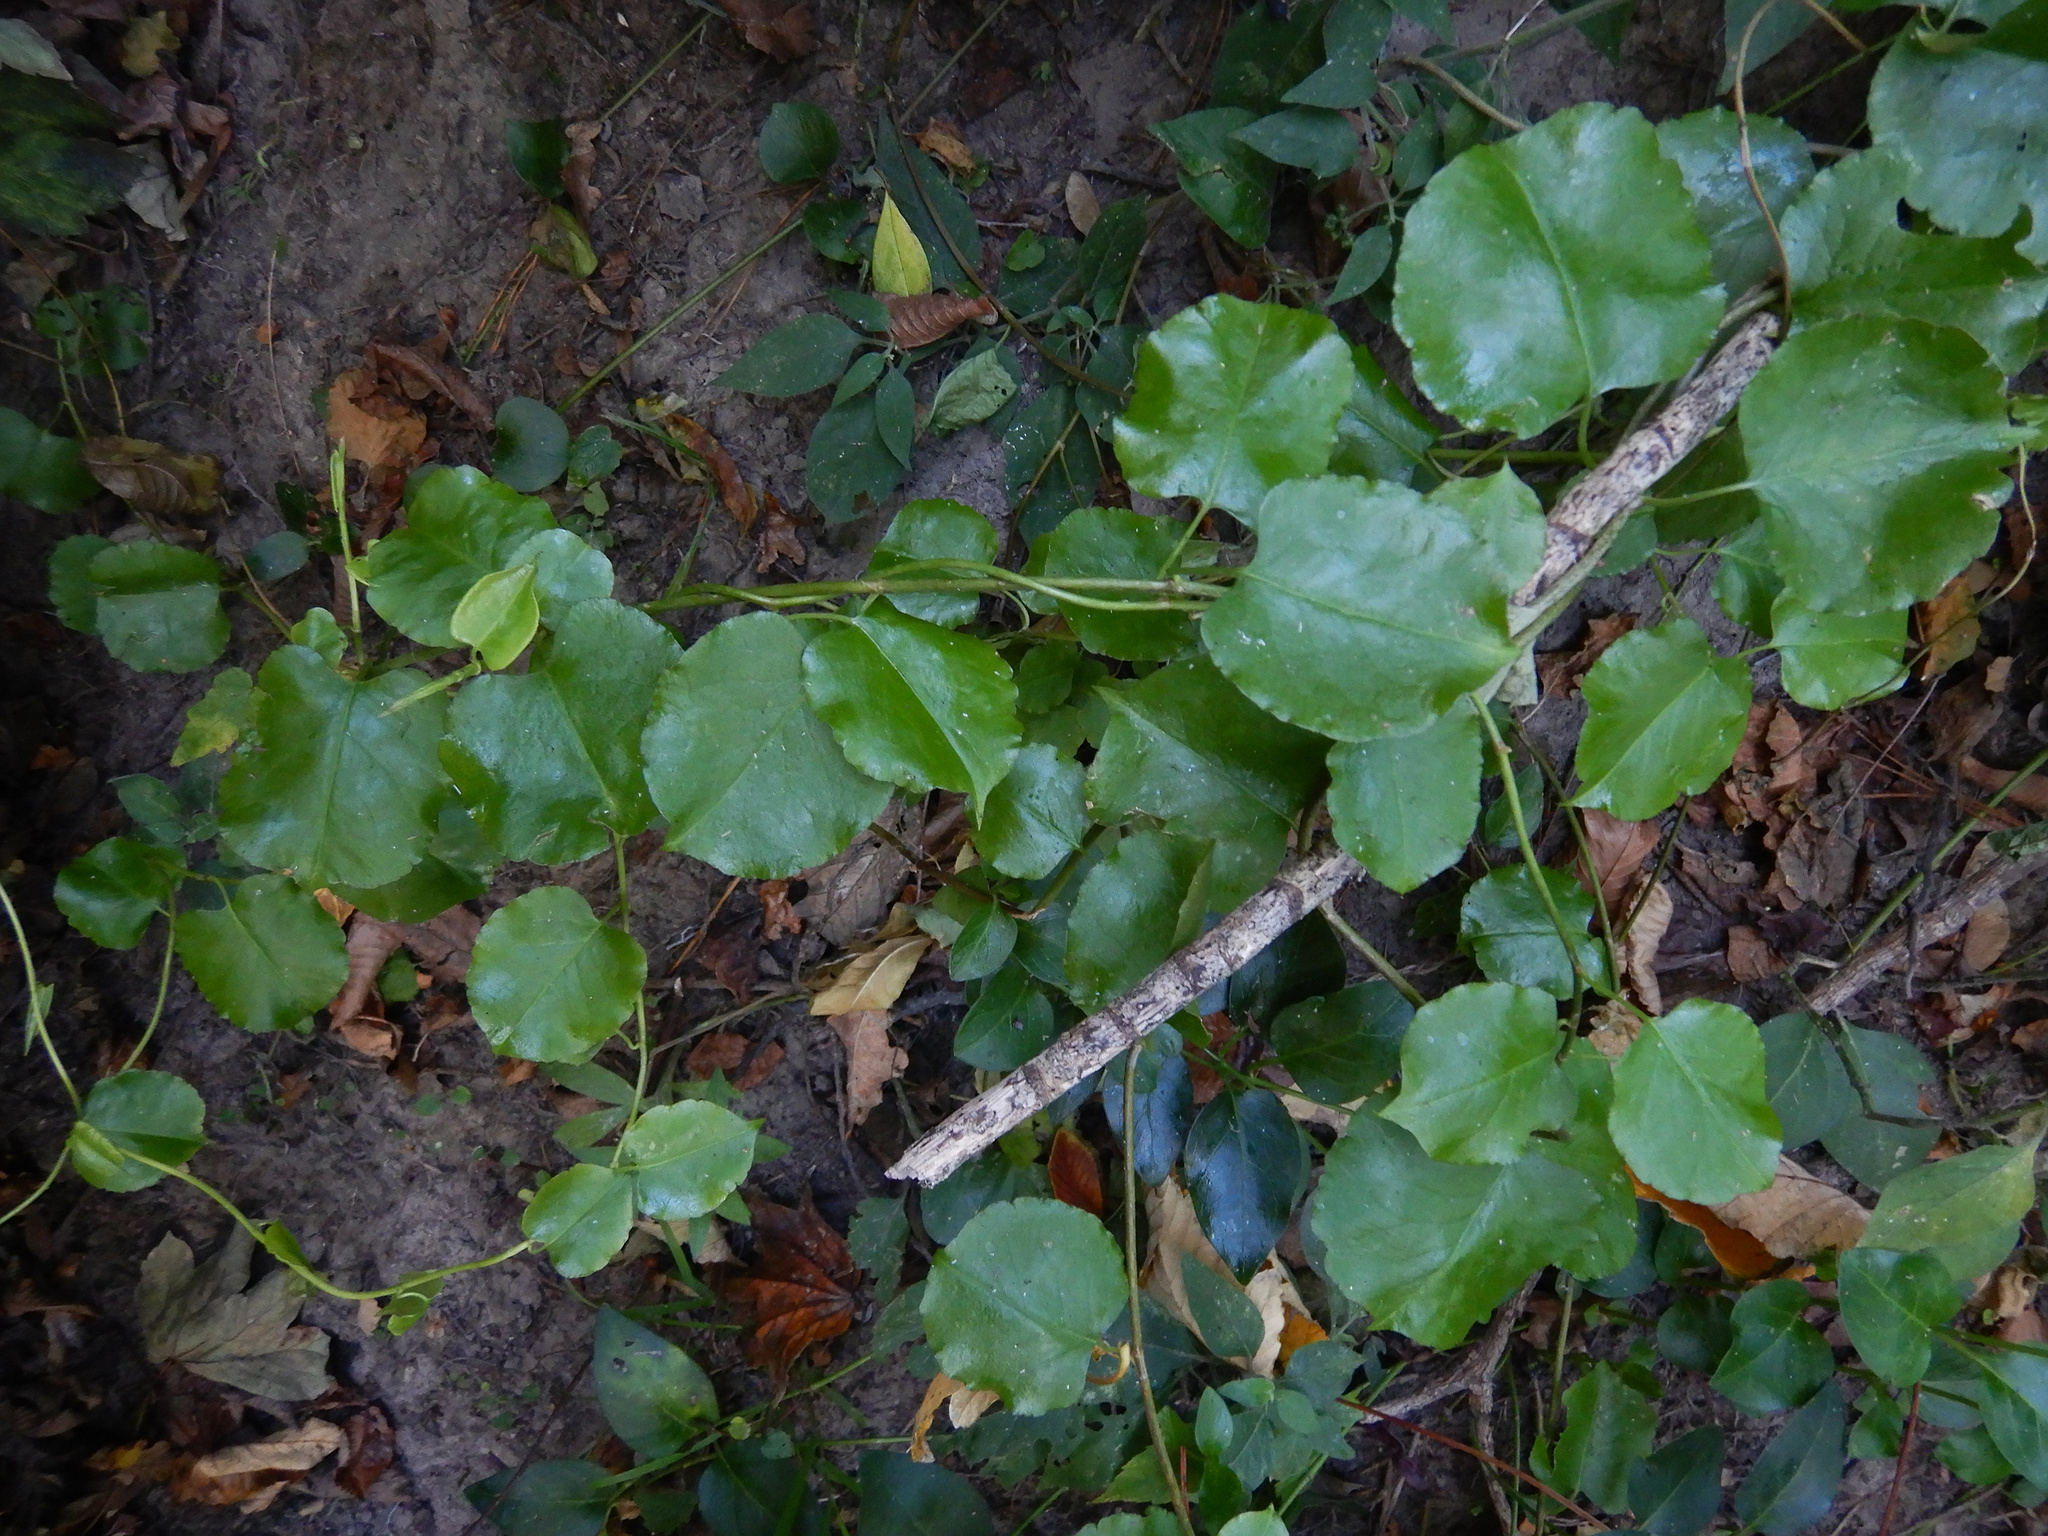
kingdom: Plantae
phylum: Tracheophyta
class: Magnoliopsida
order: Caryophyllales
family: Polygonaceae
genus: Muehlenbeckia
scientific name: Muehlenbeckia australis
